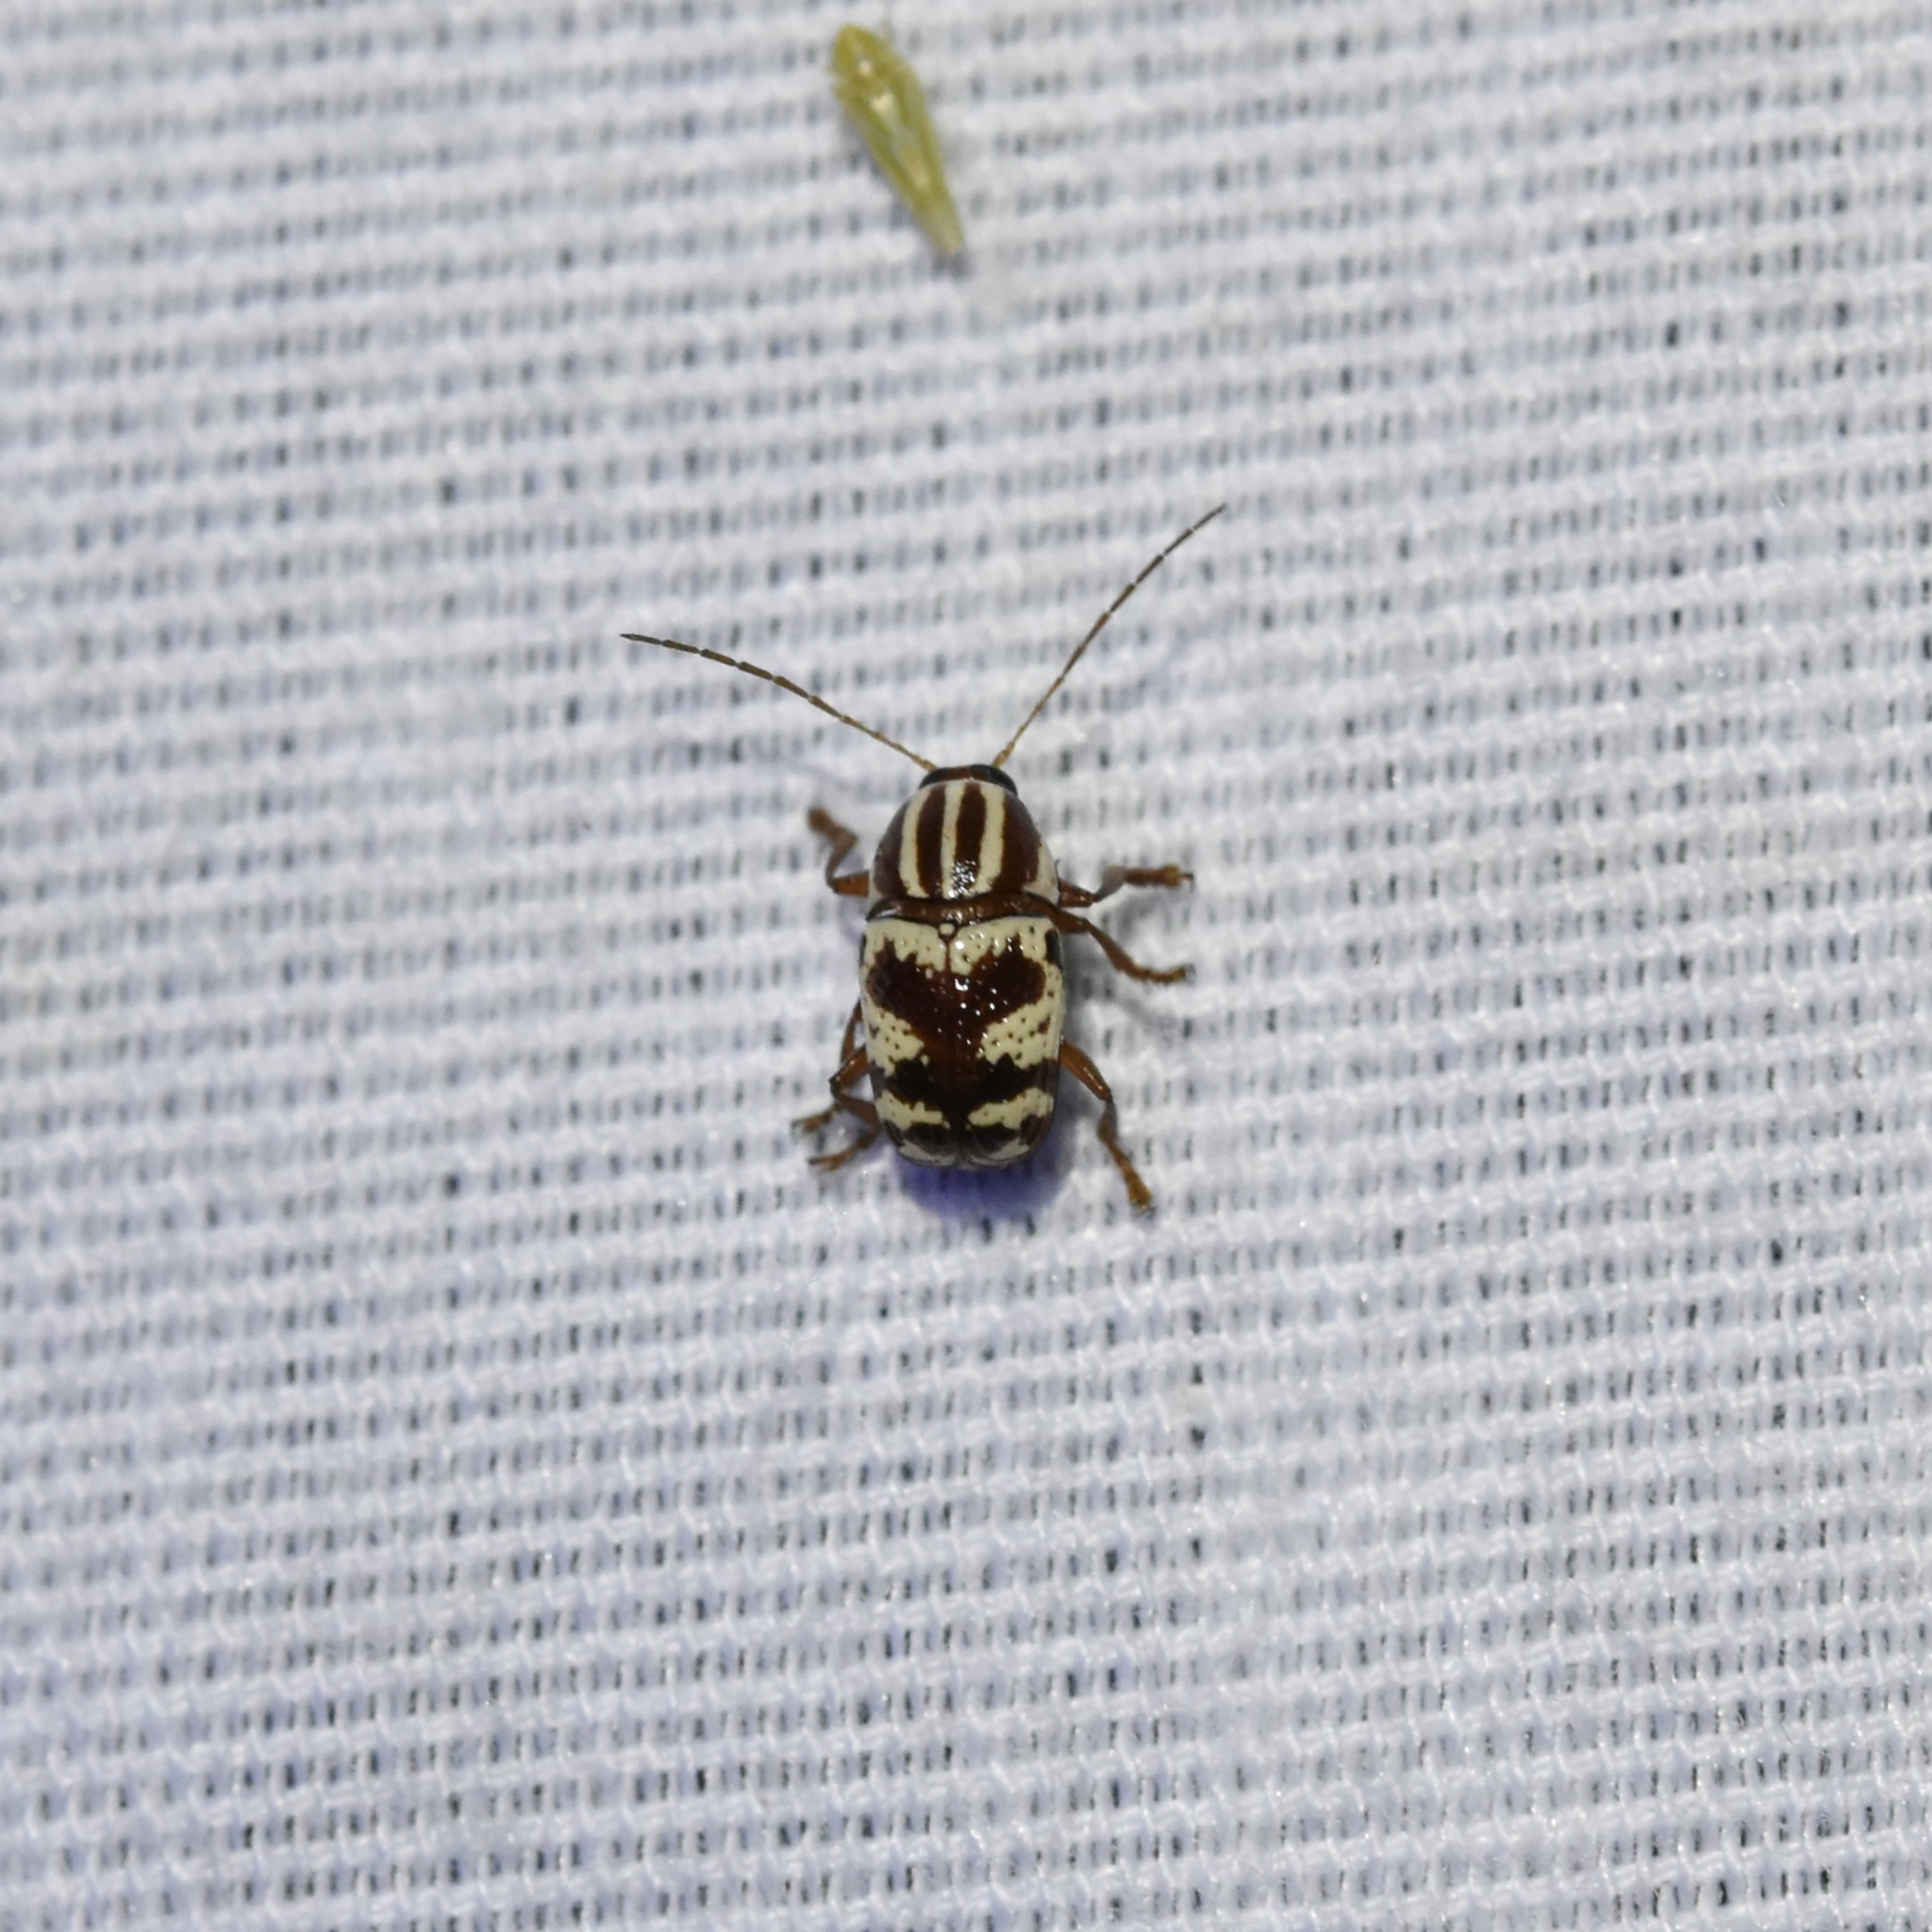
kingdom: Animalia
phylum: Arthropoda
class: Insecta
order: Coleoptera
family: Chrysomelidae
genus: Cryptocephalus
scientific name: Cryptocephalus leucomelas
